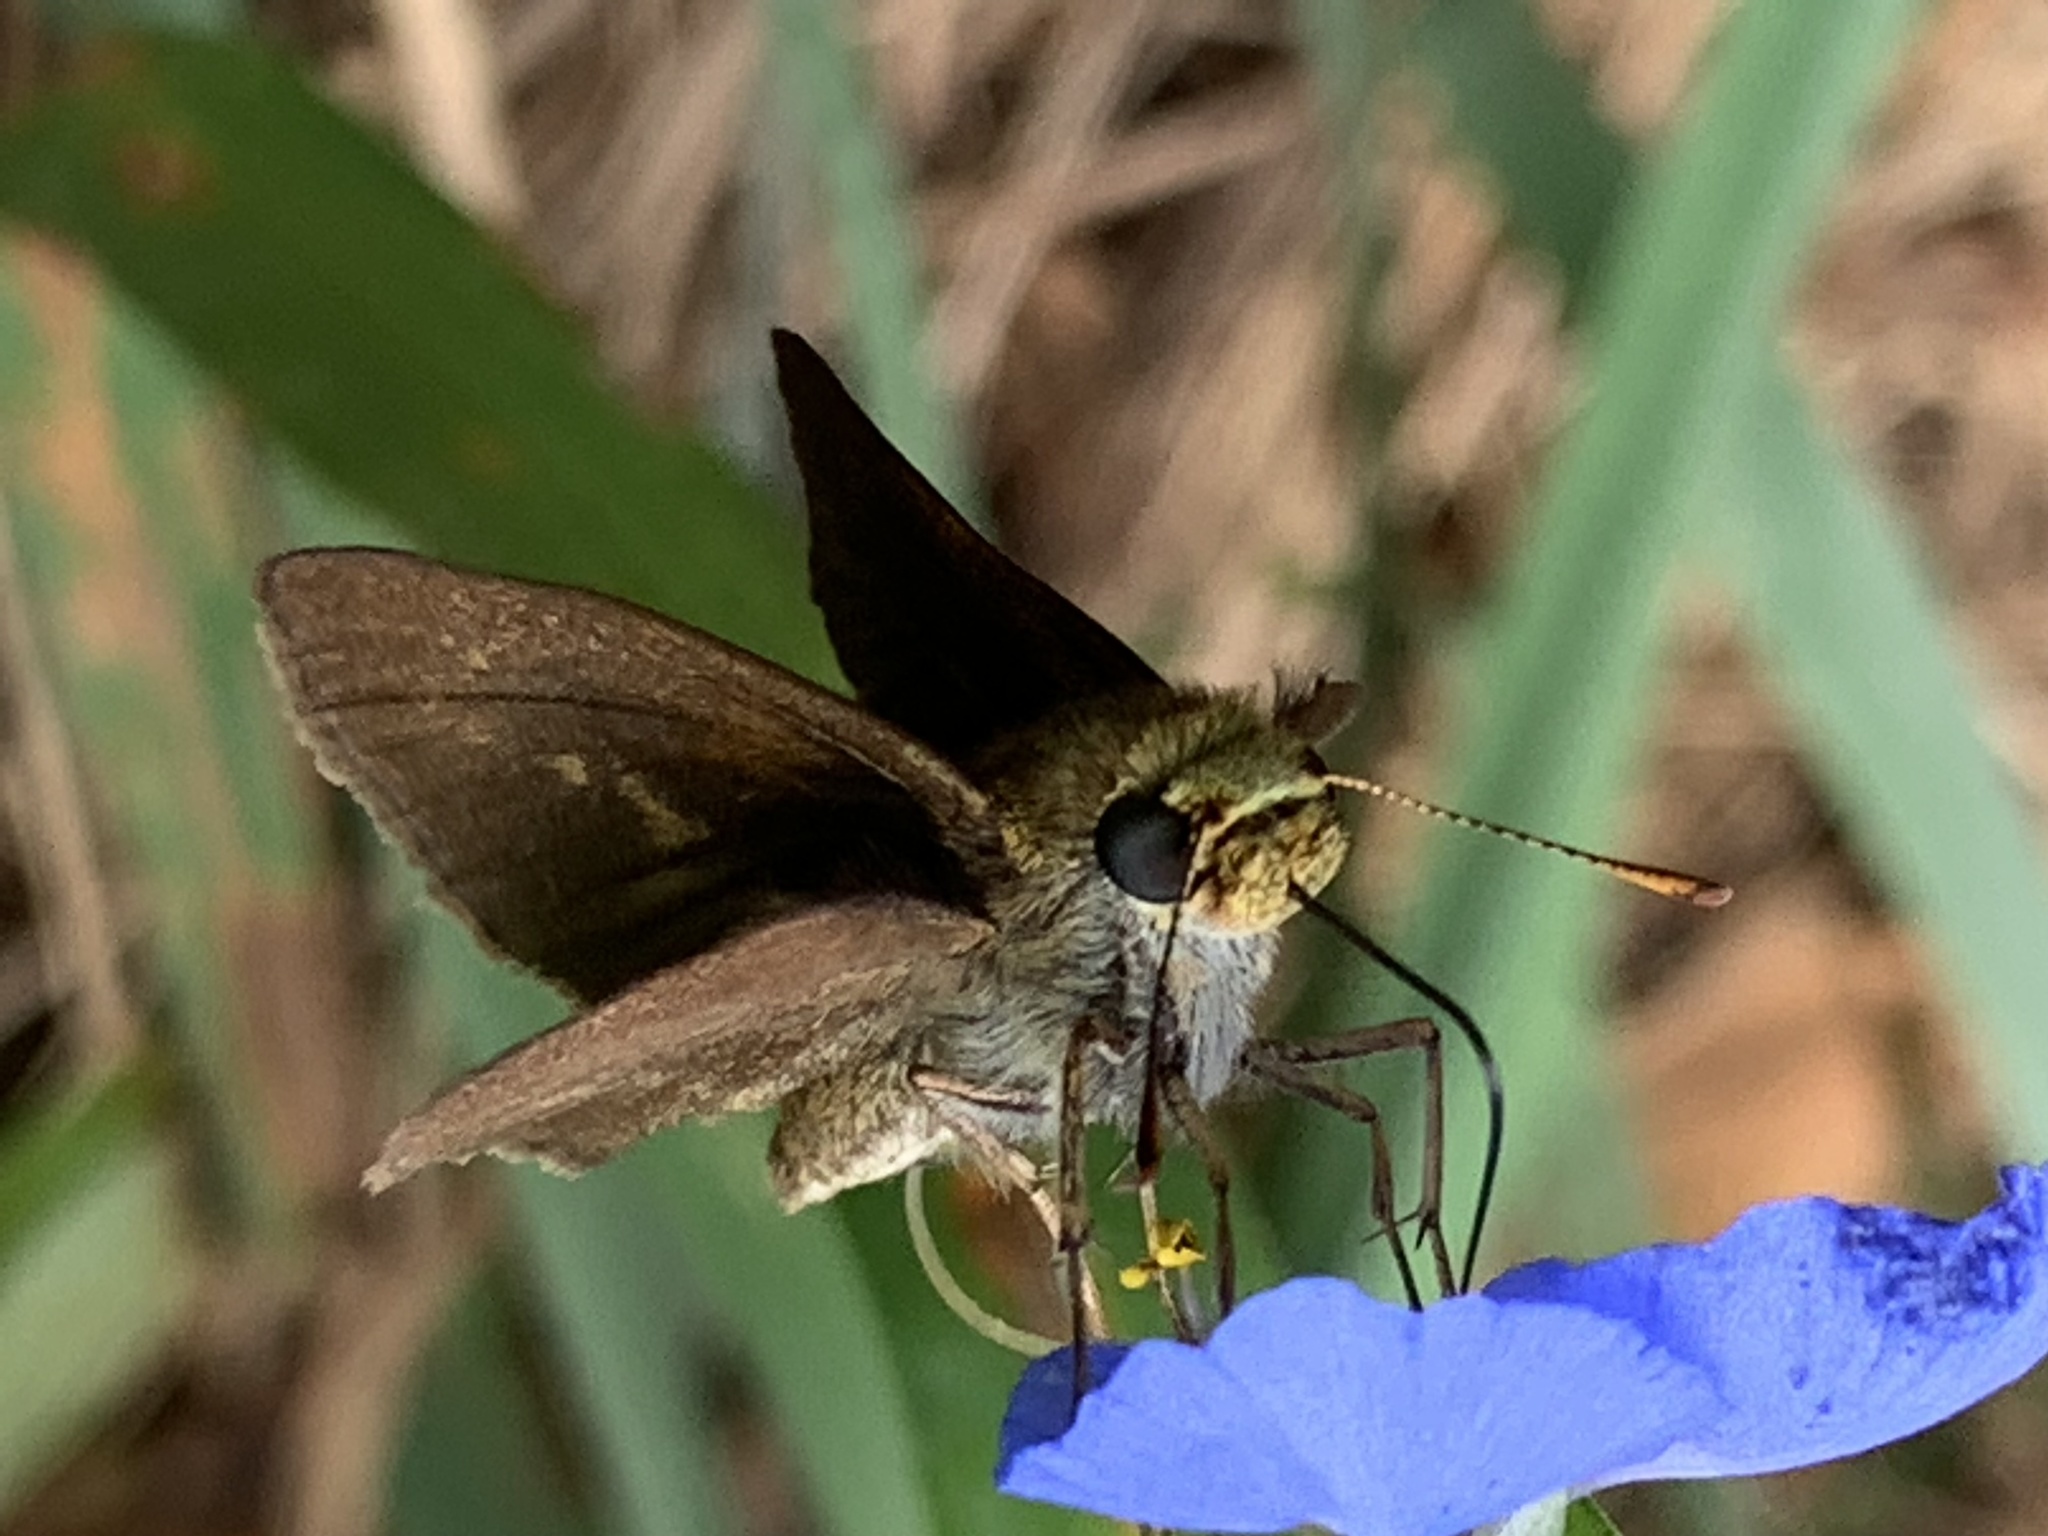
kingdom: Animalia
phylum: Arthropoda
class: Insecta
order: Lepidoptera
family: Hesperiidae
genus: Euphyes
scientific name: Euphyes vestris
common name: Dun skipper
